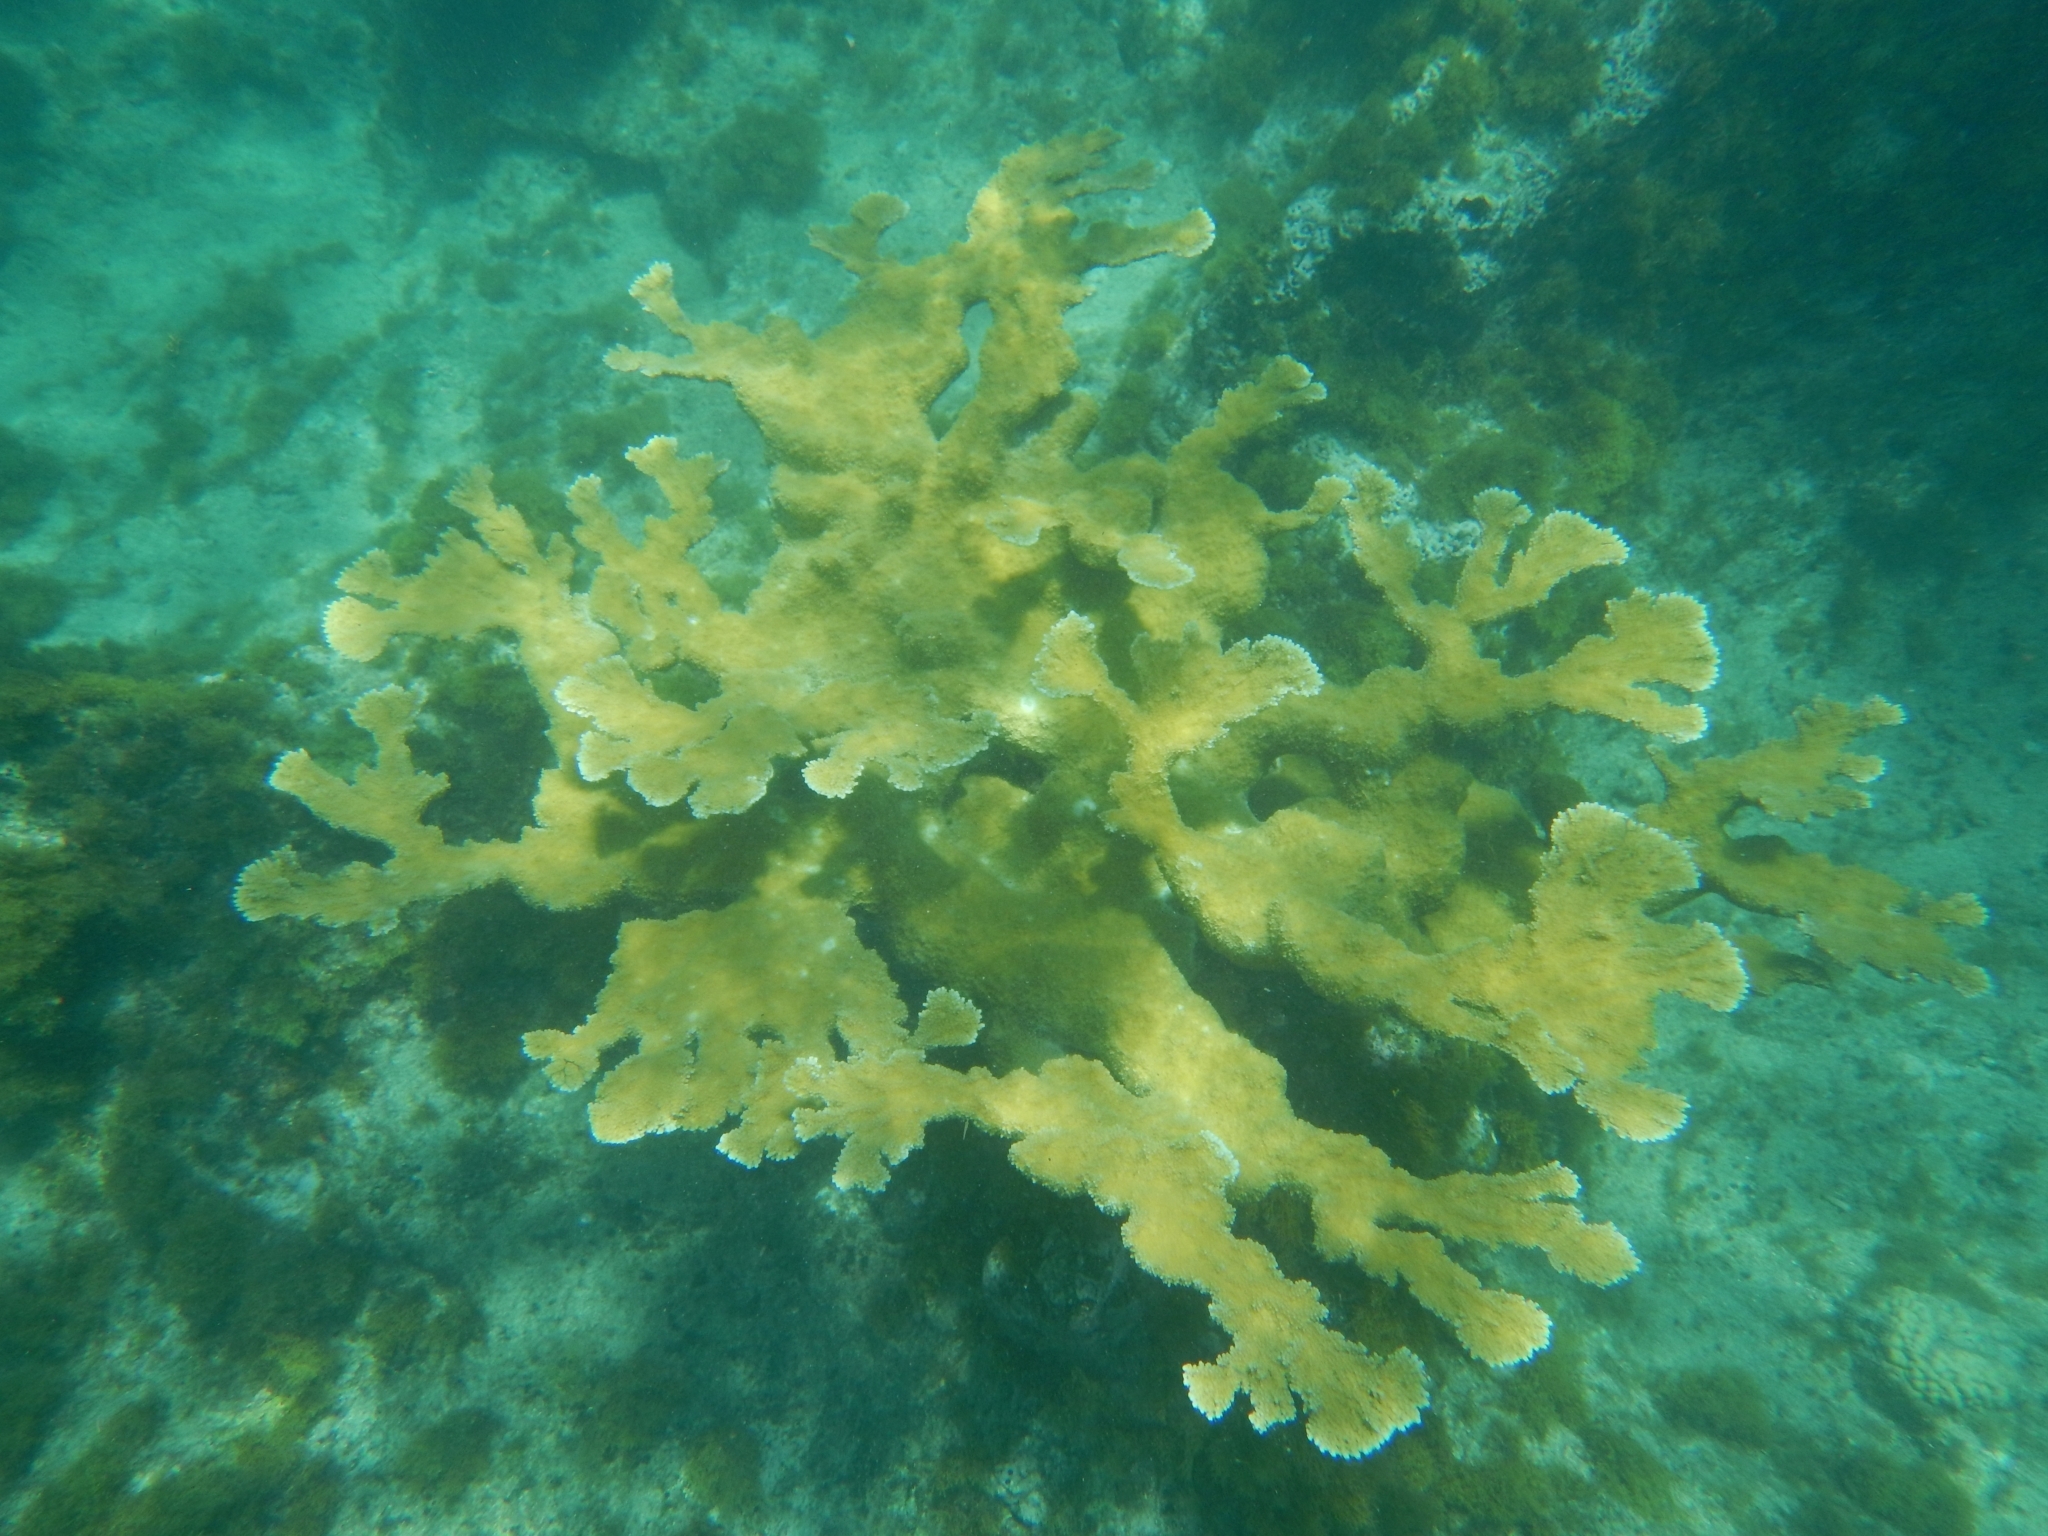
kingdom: Animalia
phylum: Cnidaria
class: Anthozoa
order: Scleractinia
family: Acroporidae
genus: Acropora
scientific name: Acropora palmata
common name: Elkhorn coral
